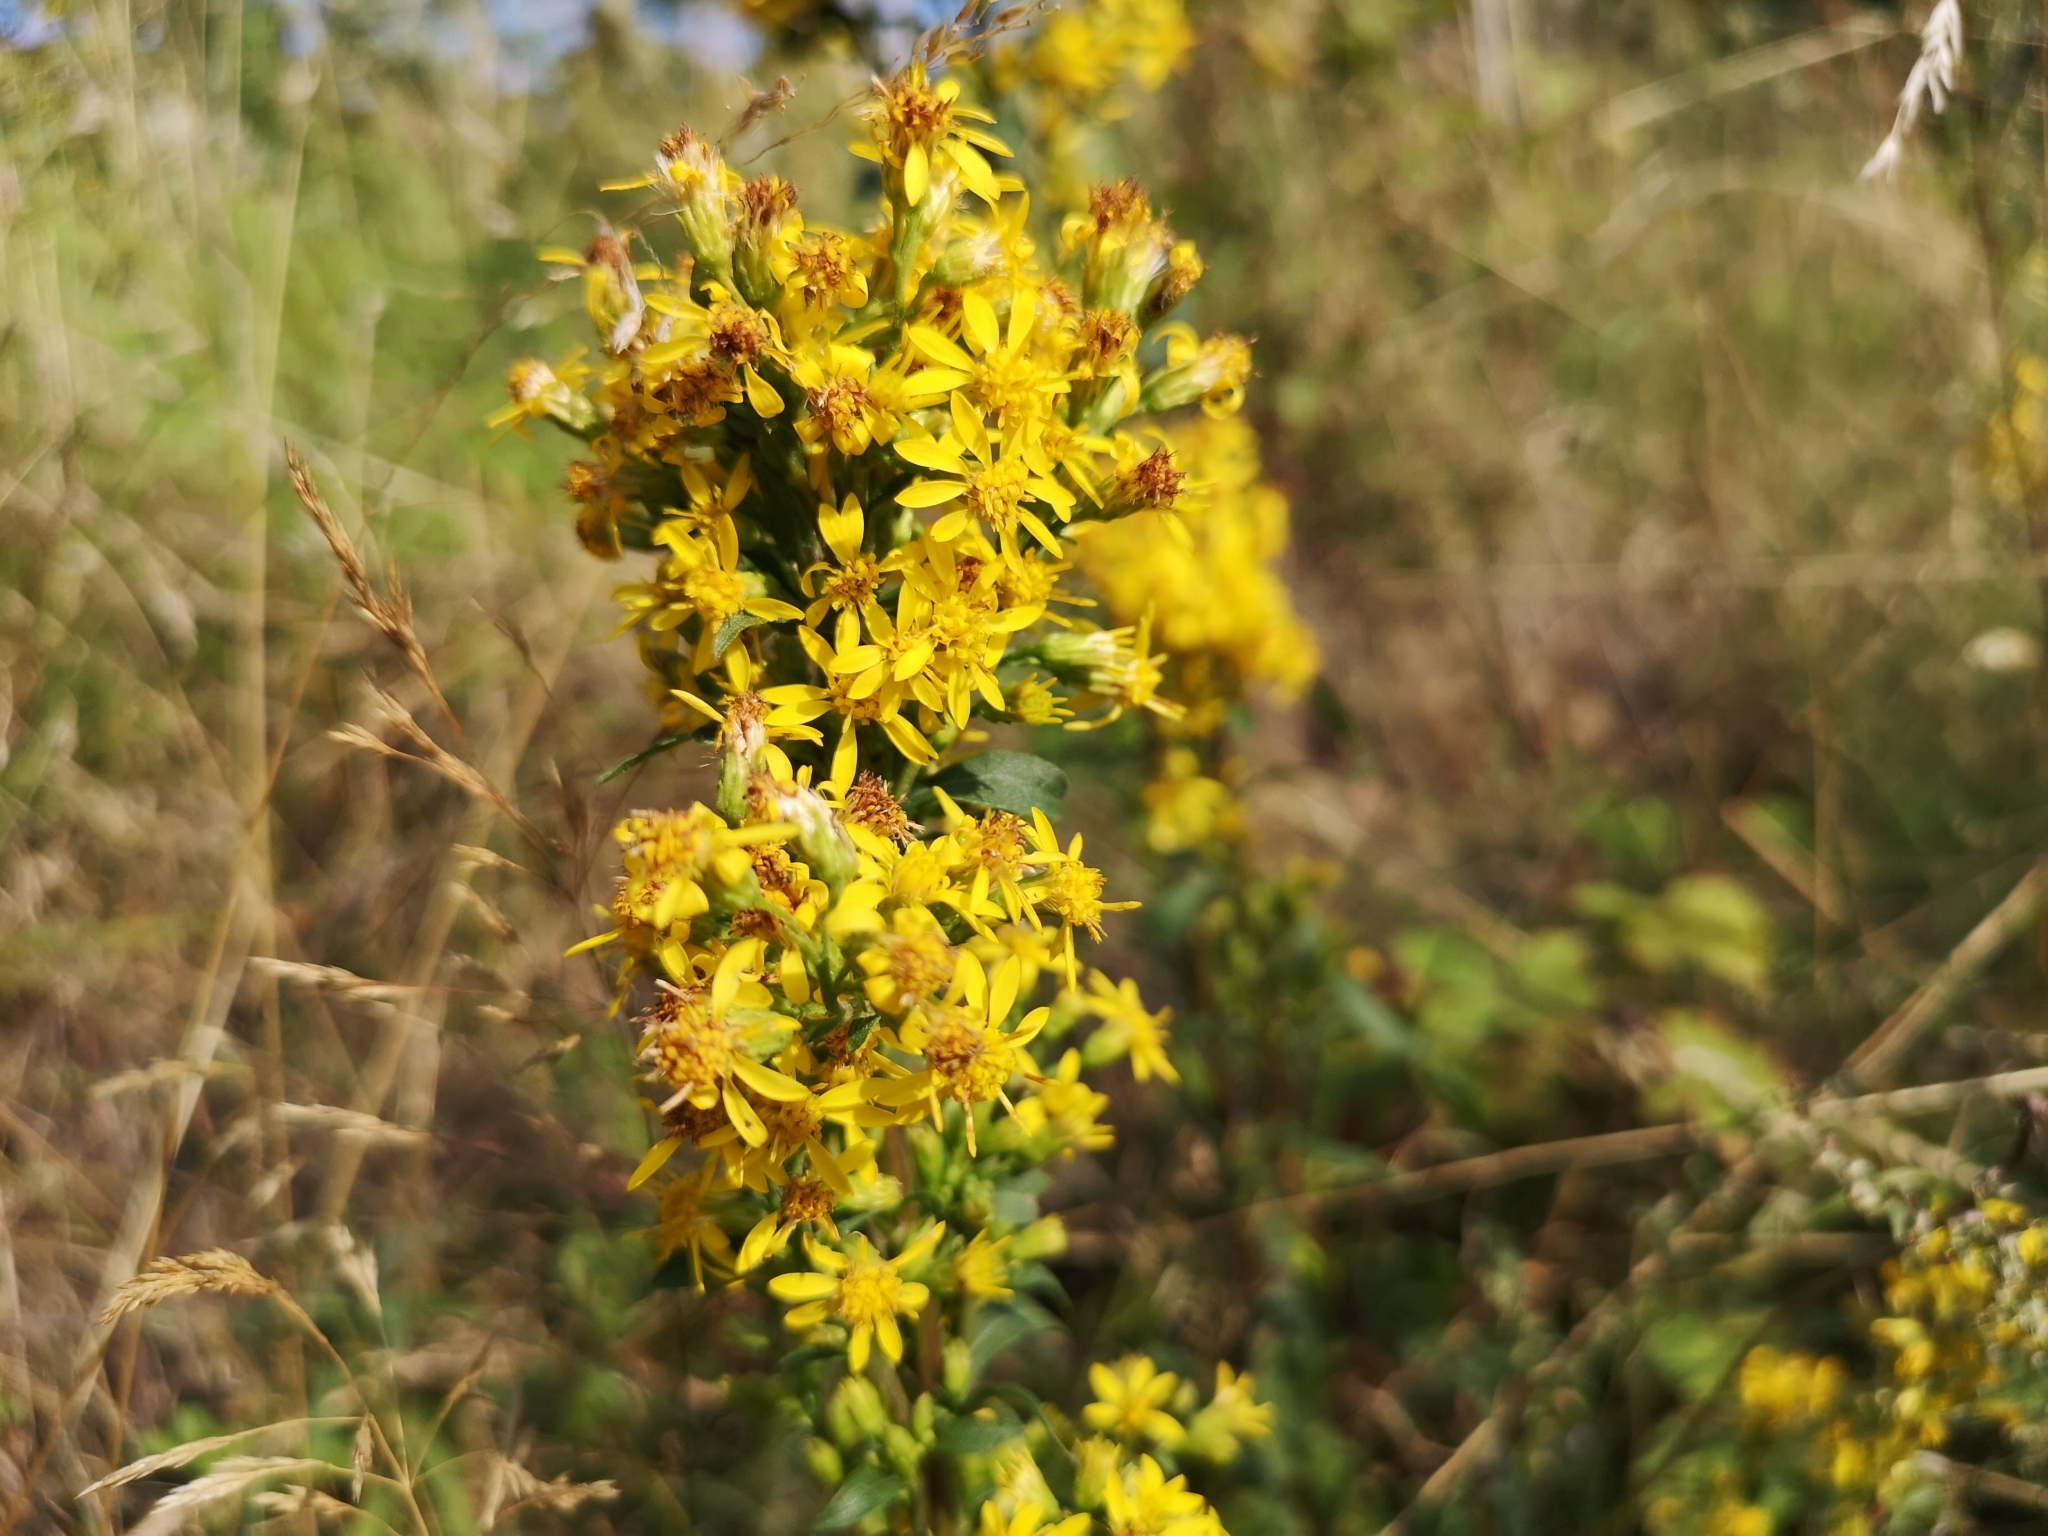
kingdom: Plantae
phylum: Tracheophyta
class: Magnoliopsida
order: Asterales
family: Asteraceae
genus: Solidago
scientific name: Solidago virgaurea
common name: Goldenrod
